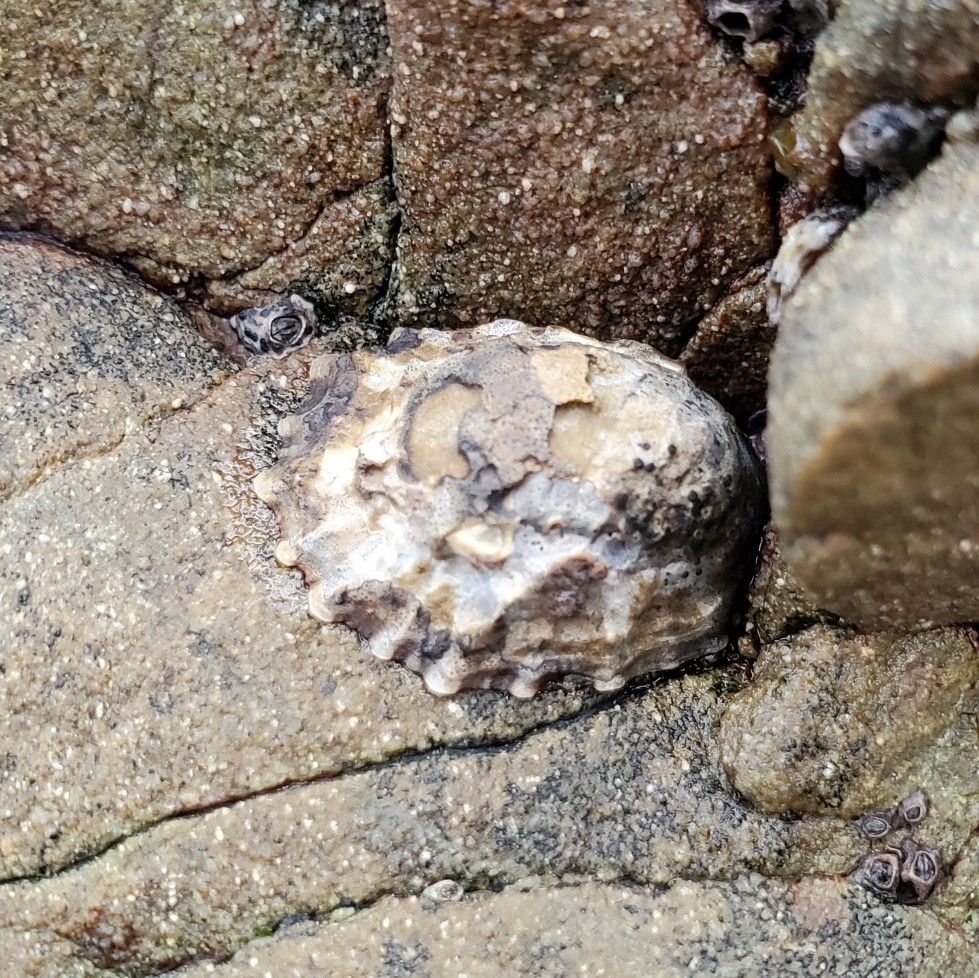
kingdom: Animalia
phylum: Mollusca
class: Gastropoda
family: Nacellidae
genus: Cellana
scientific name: Cellana ornata
